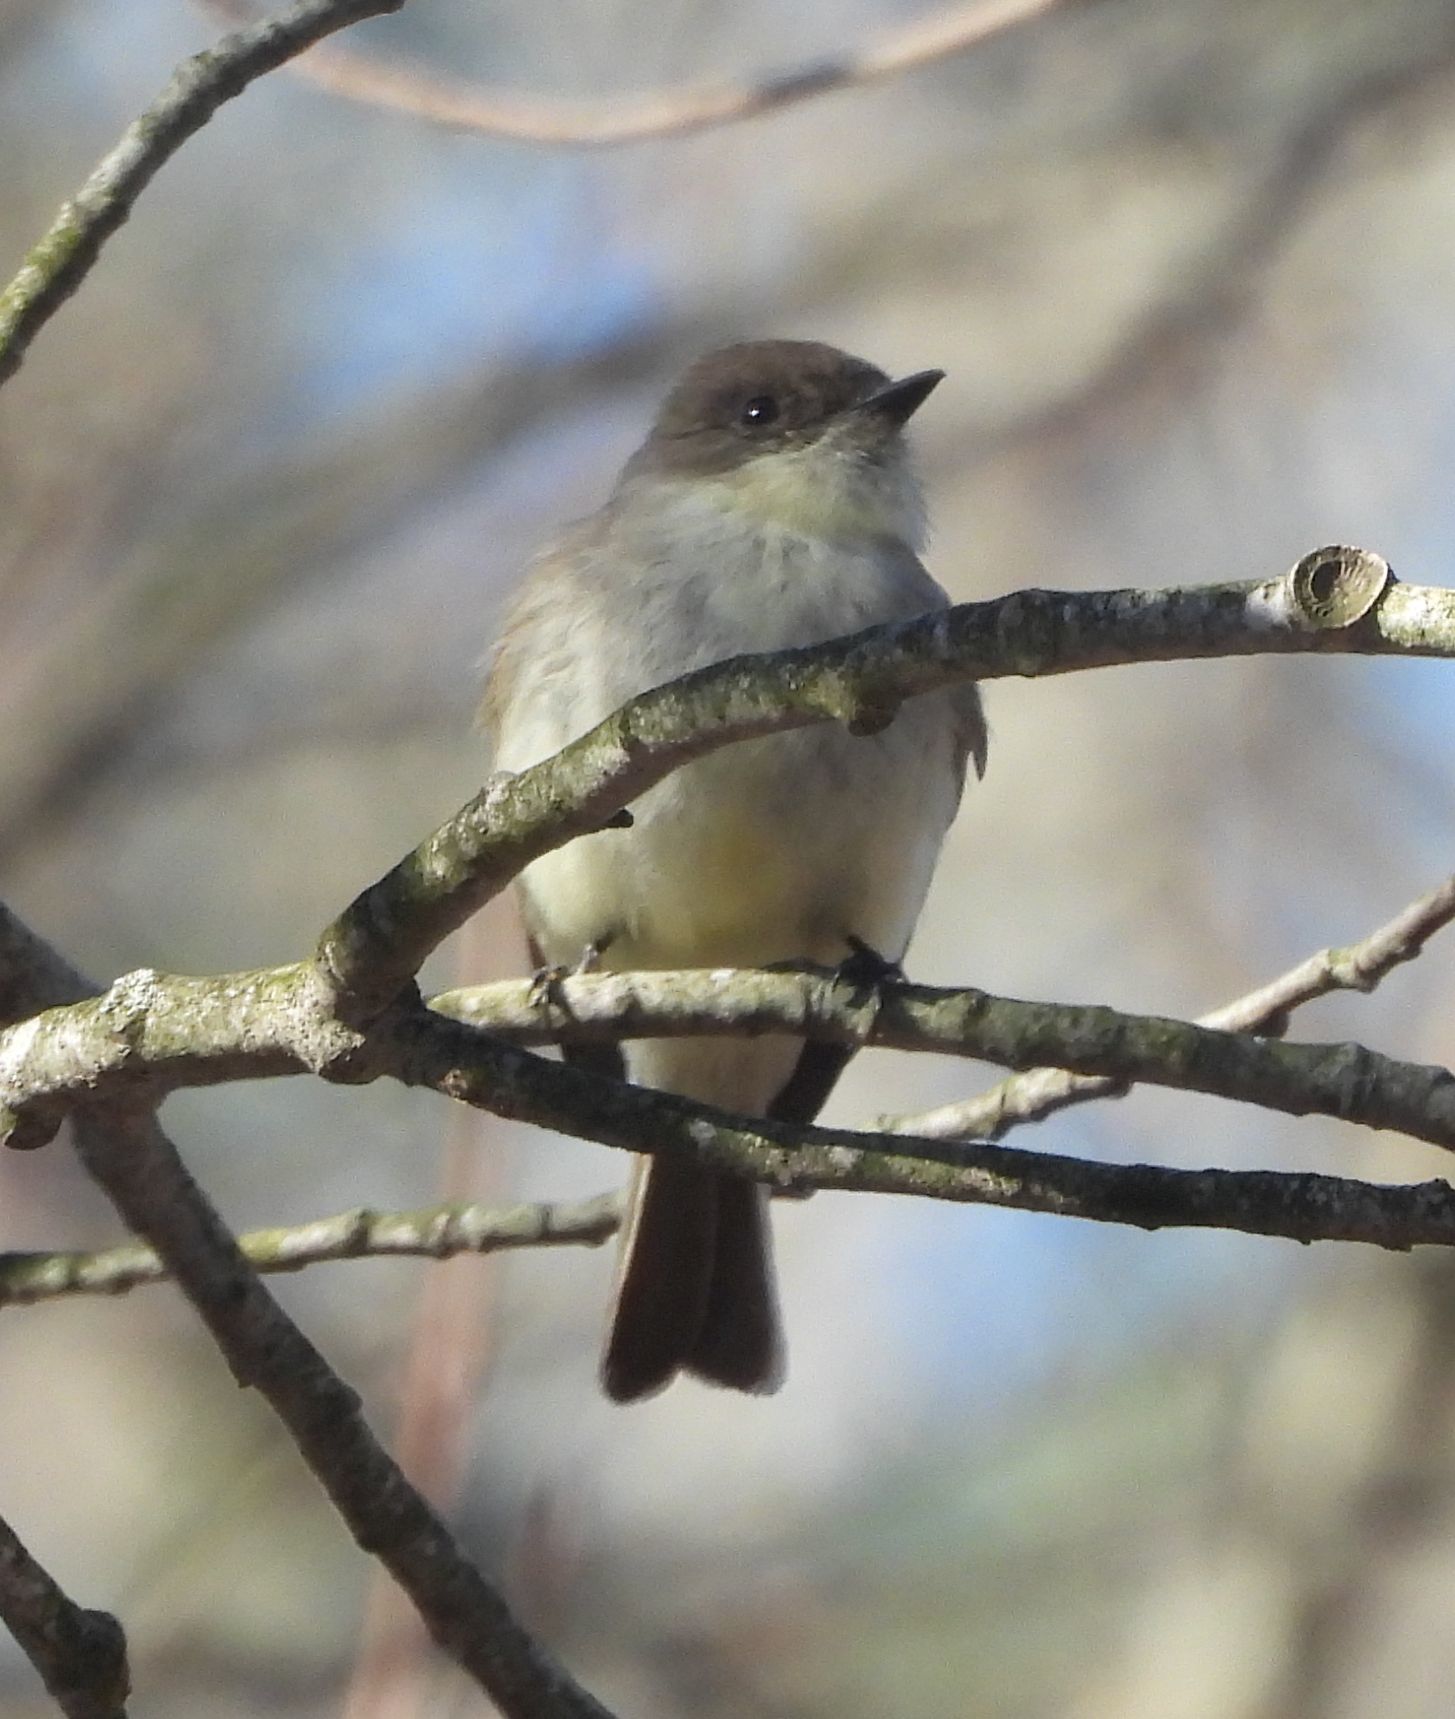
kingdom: Animalia
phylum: Chordata
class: Aves
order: Passeriformes
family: Tyrannidae
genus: Sayornis
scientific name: Sayornis phoebe
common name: Eastern phoebe
